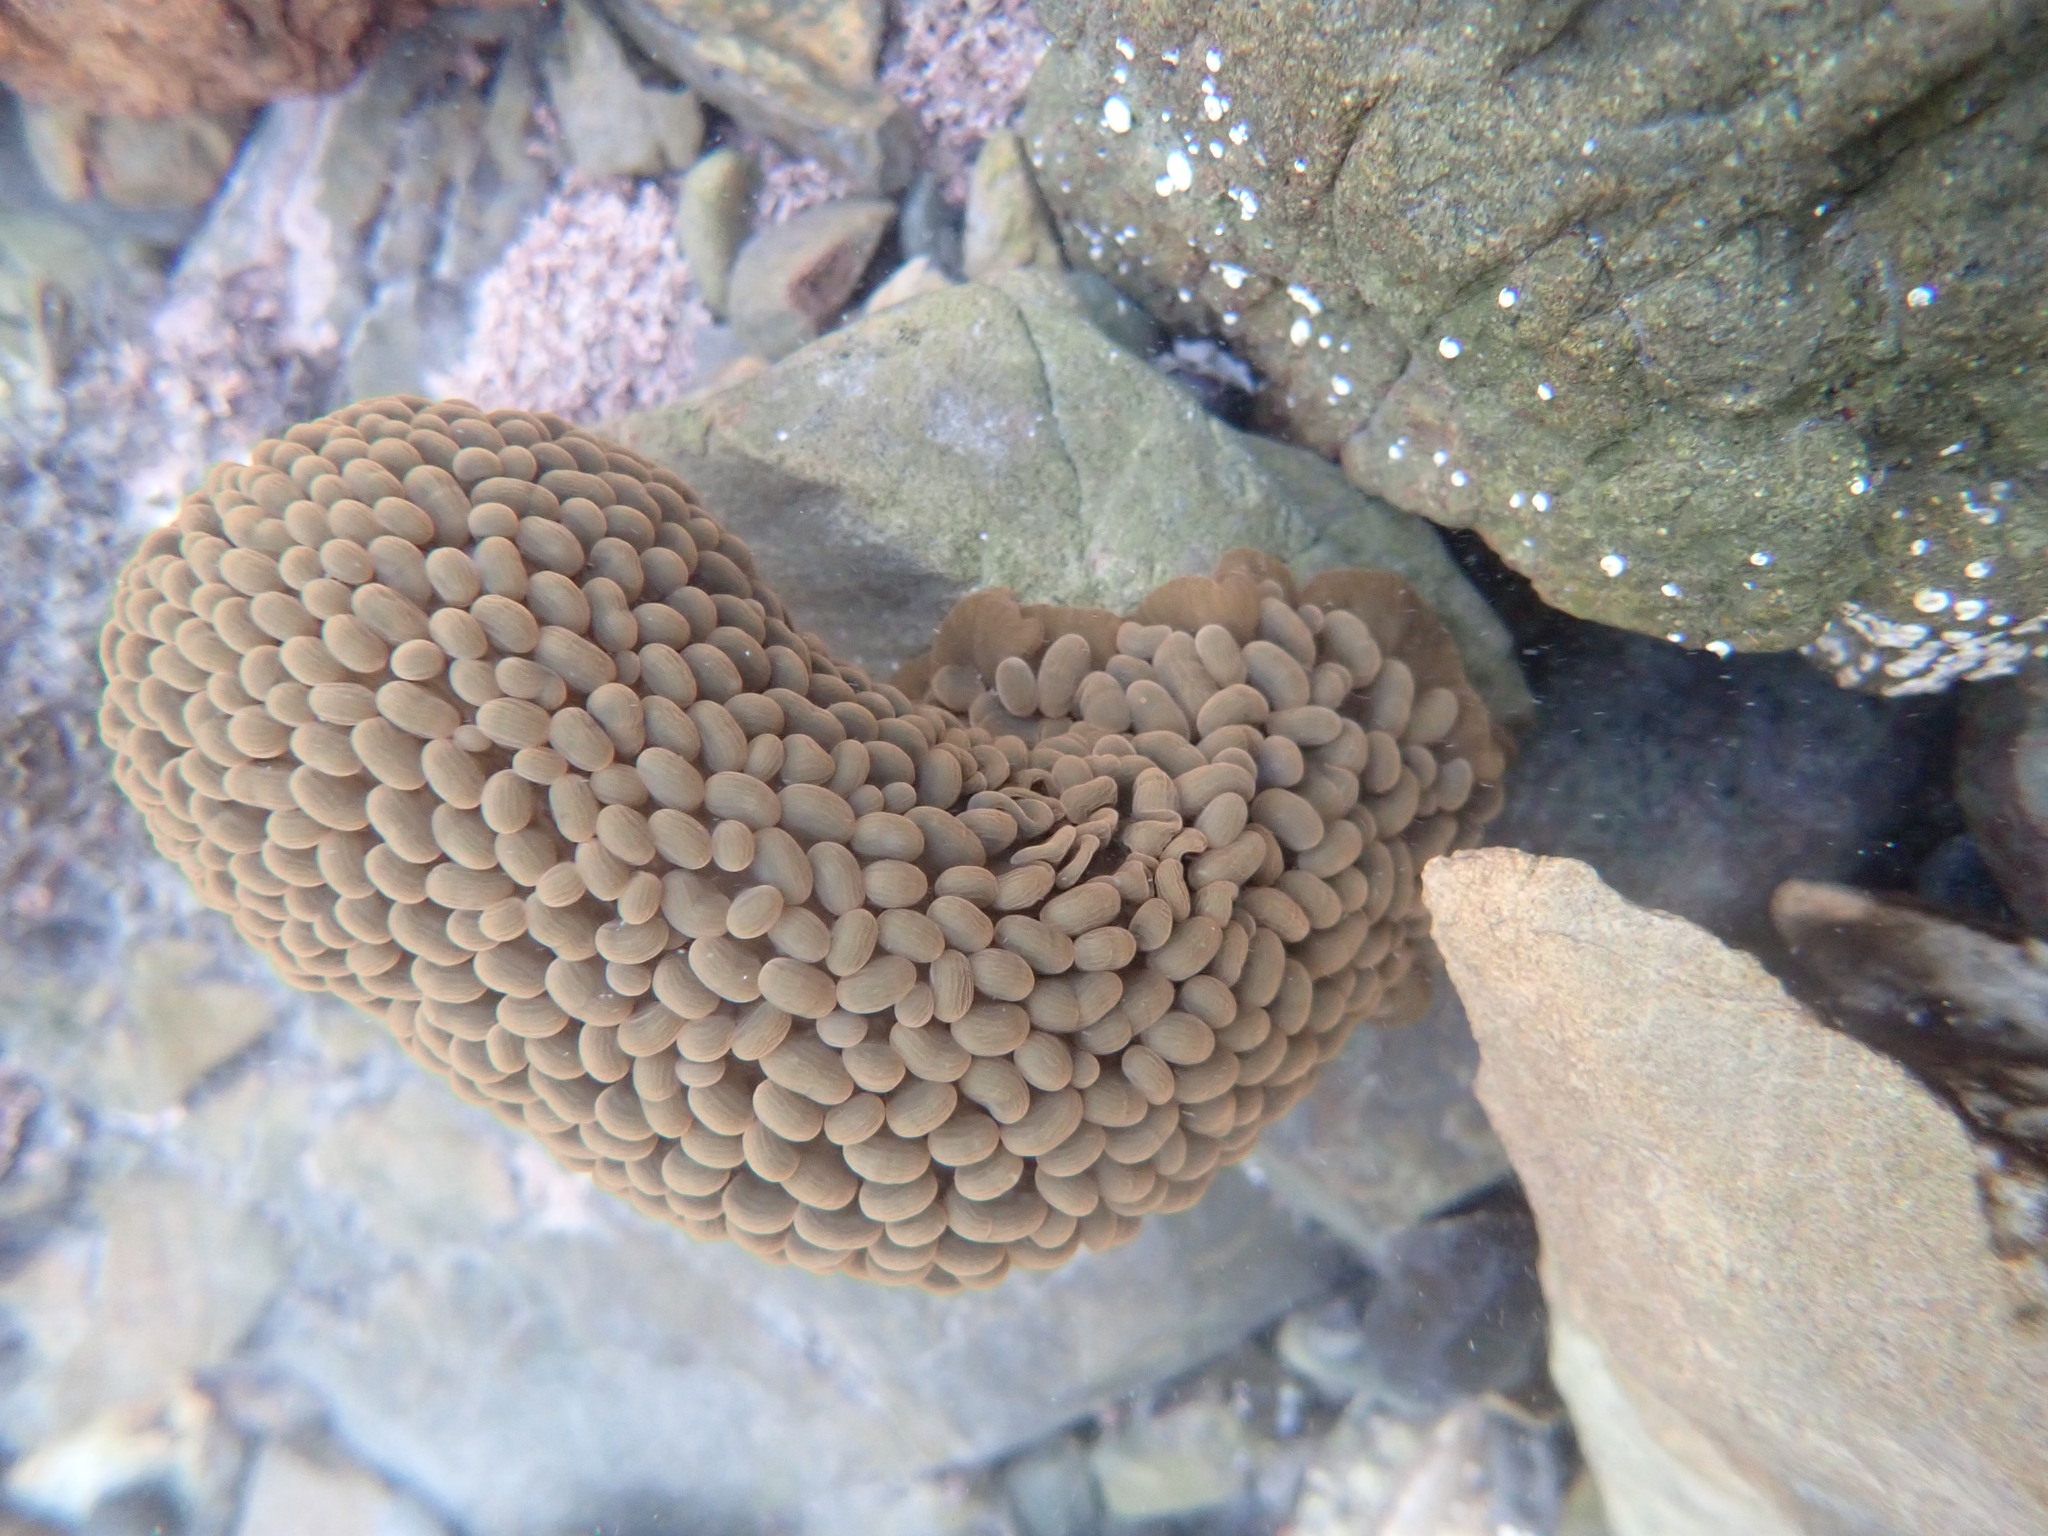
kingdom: Animalia
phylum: Cnidaria
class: Anthozoa
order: Actiniaria
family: Actiniidae
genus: Phlyctenactis
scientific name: Phlyctenactis tuberculosa
